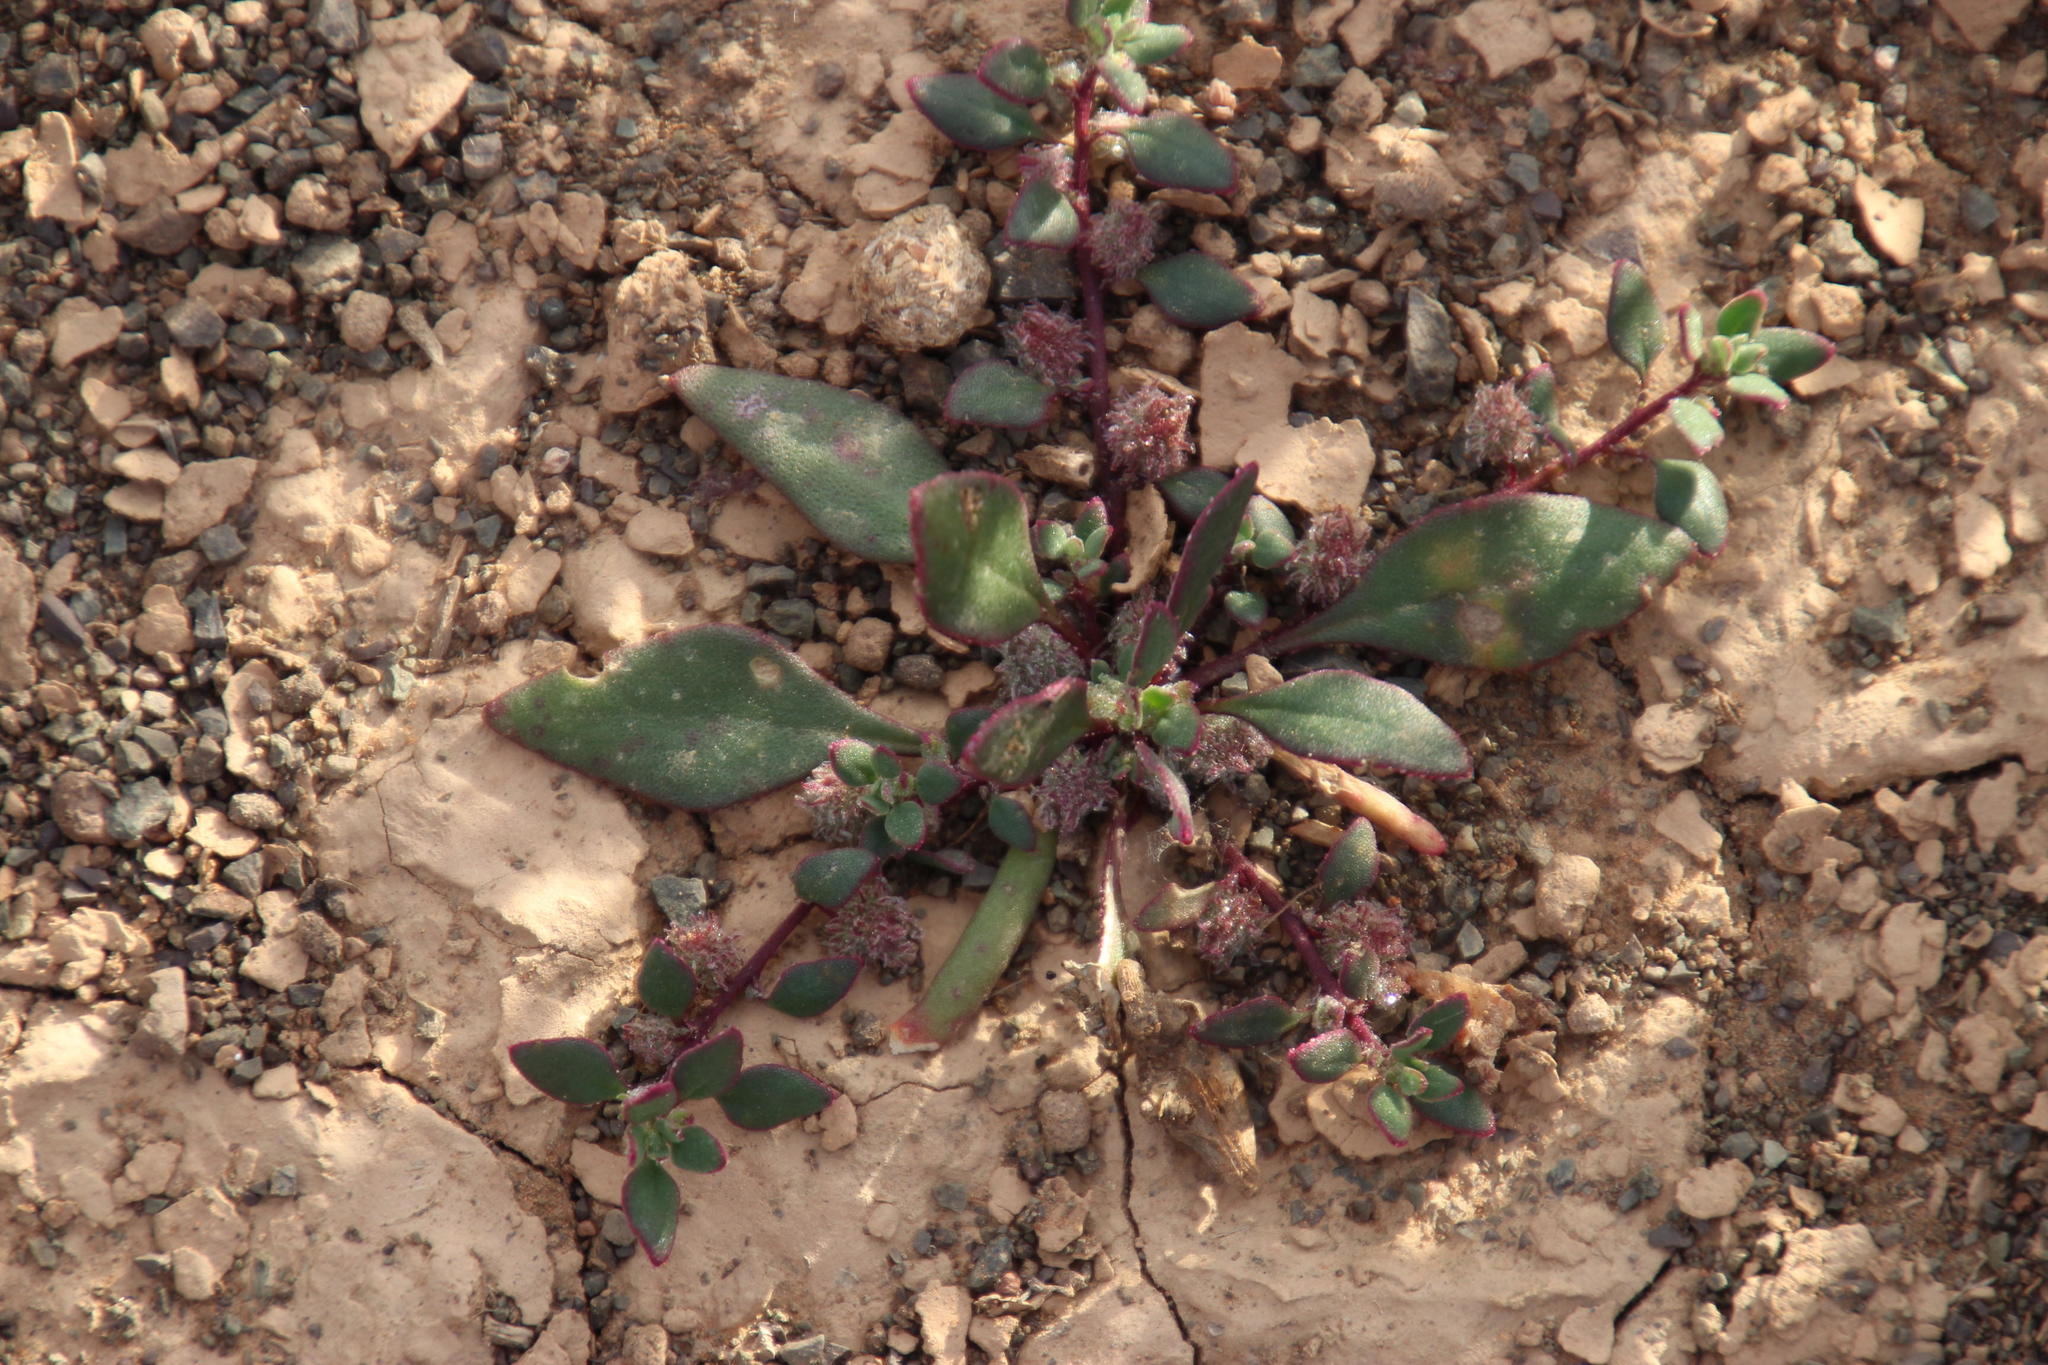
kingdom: Plantae
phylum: Tracheophyta
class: Magnoliopsida
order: Caryophyllales
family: Aizoaceae
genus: Tetragonia
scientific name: Tetragonia echinata
